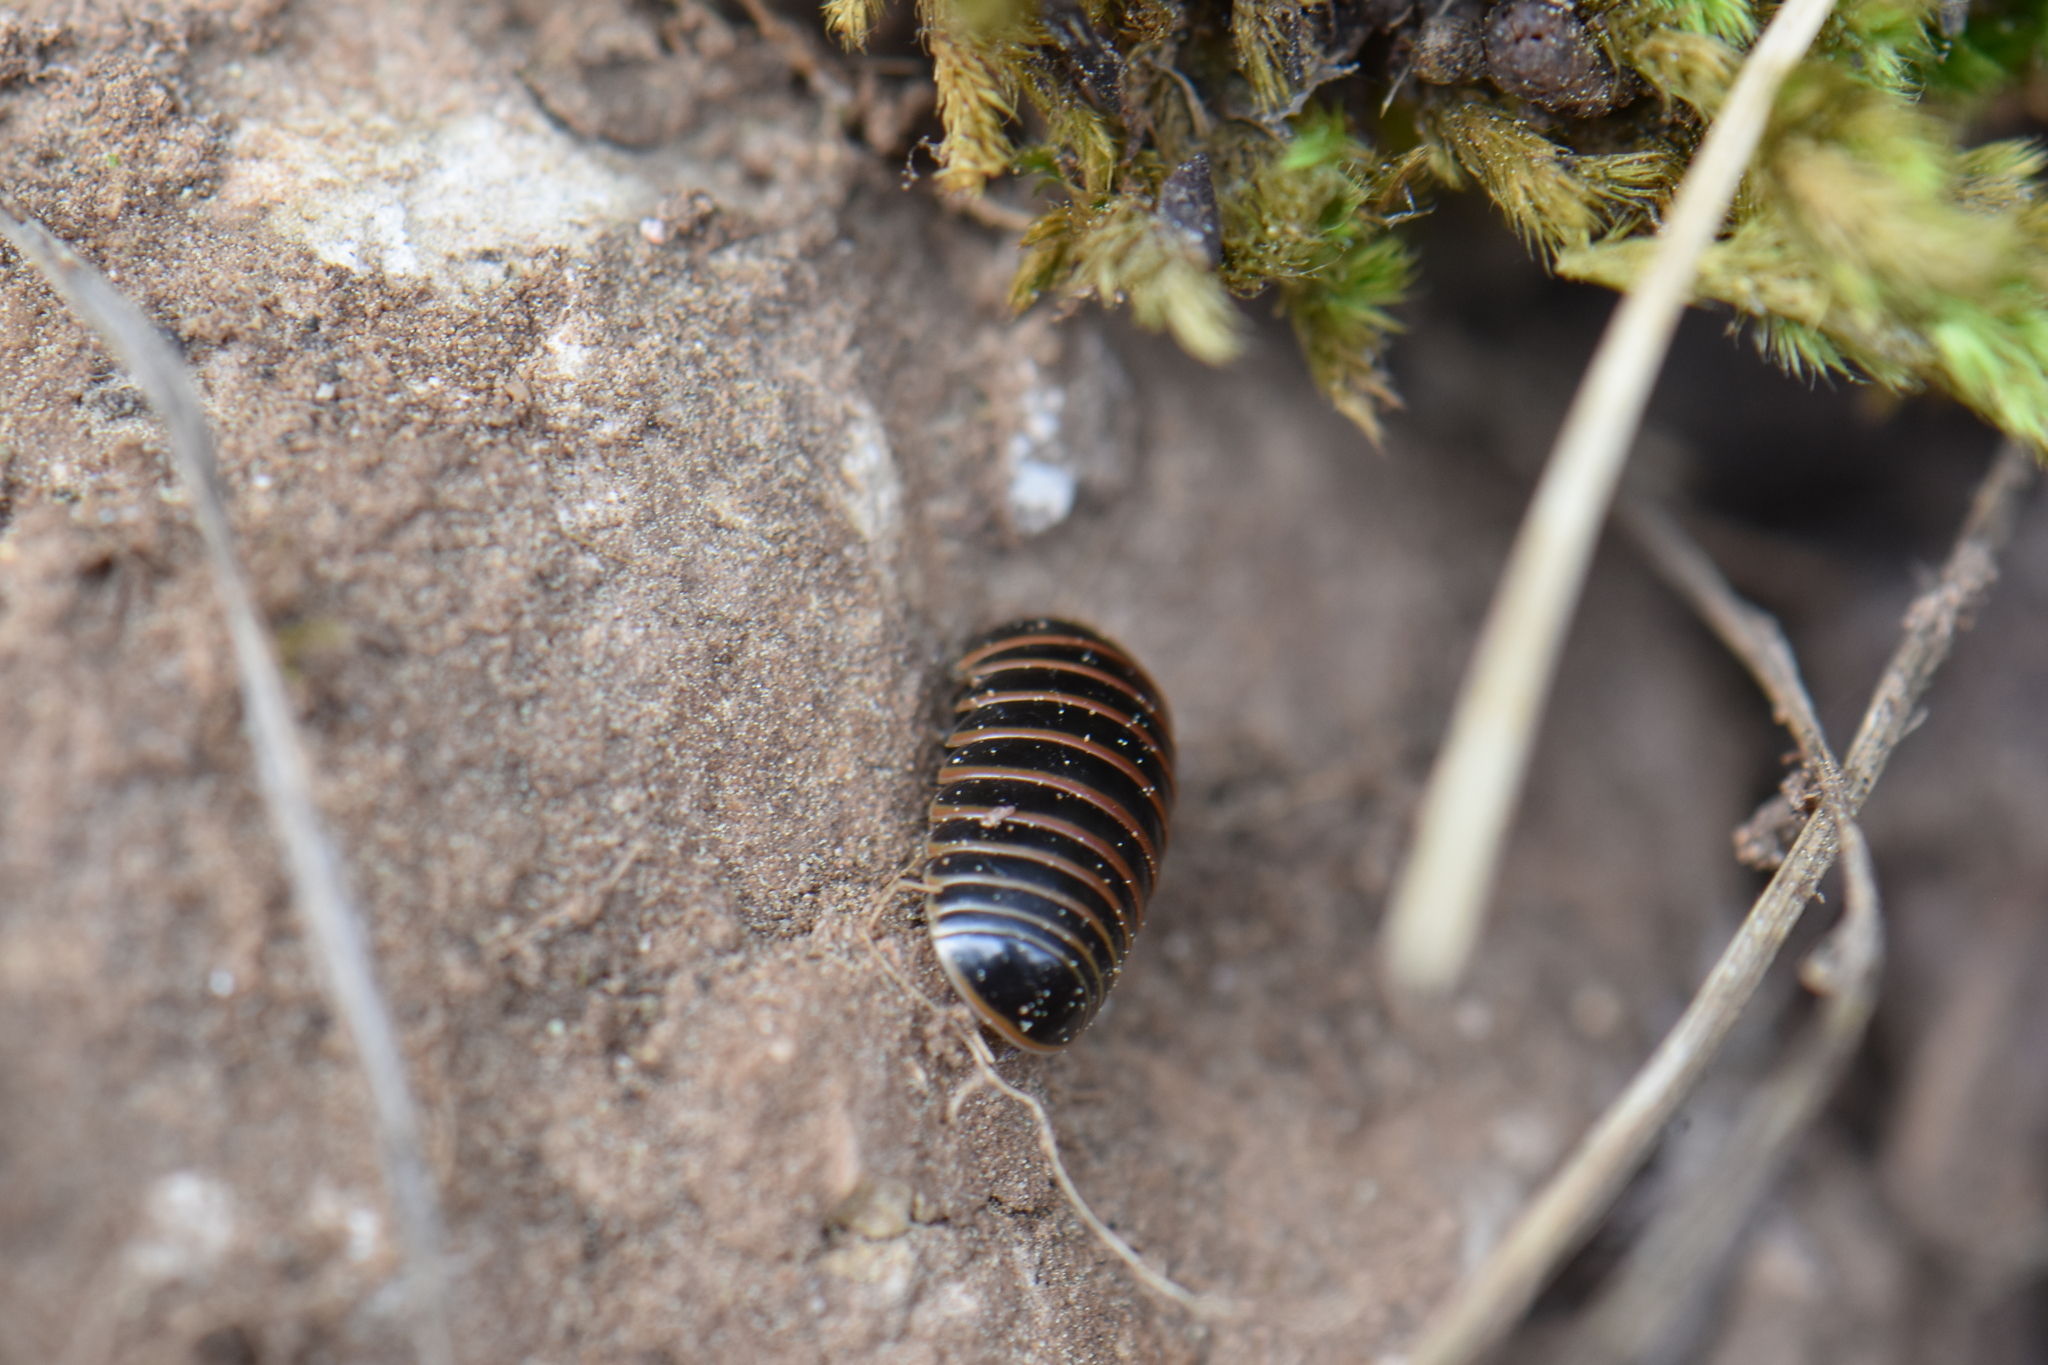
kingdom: Animalia
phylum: Arthropoda
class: Diplopoda
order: Glomerida
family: Glomeridae
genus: Glomeris
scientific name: Glomeris marginata
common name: Bordered pill millipede
